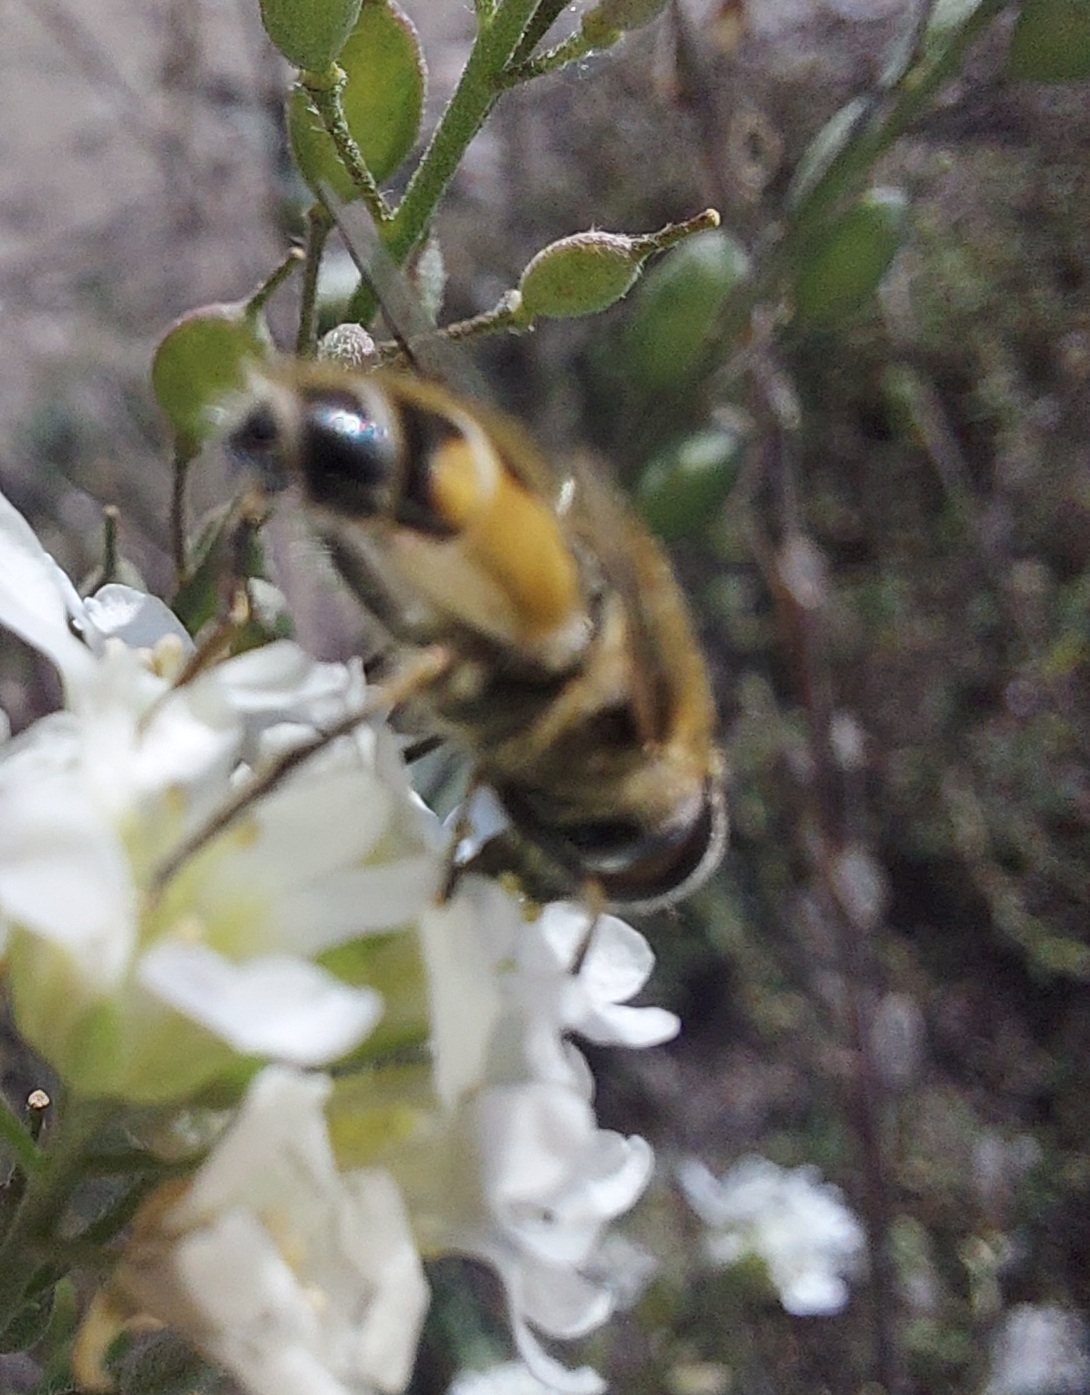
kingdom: Animalia
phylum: Arthropoda
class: Insecta
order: Diptera
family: Syrphidae
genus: Eristalis
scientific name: Eristalis arbustorum
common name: Hover fly
